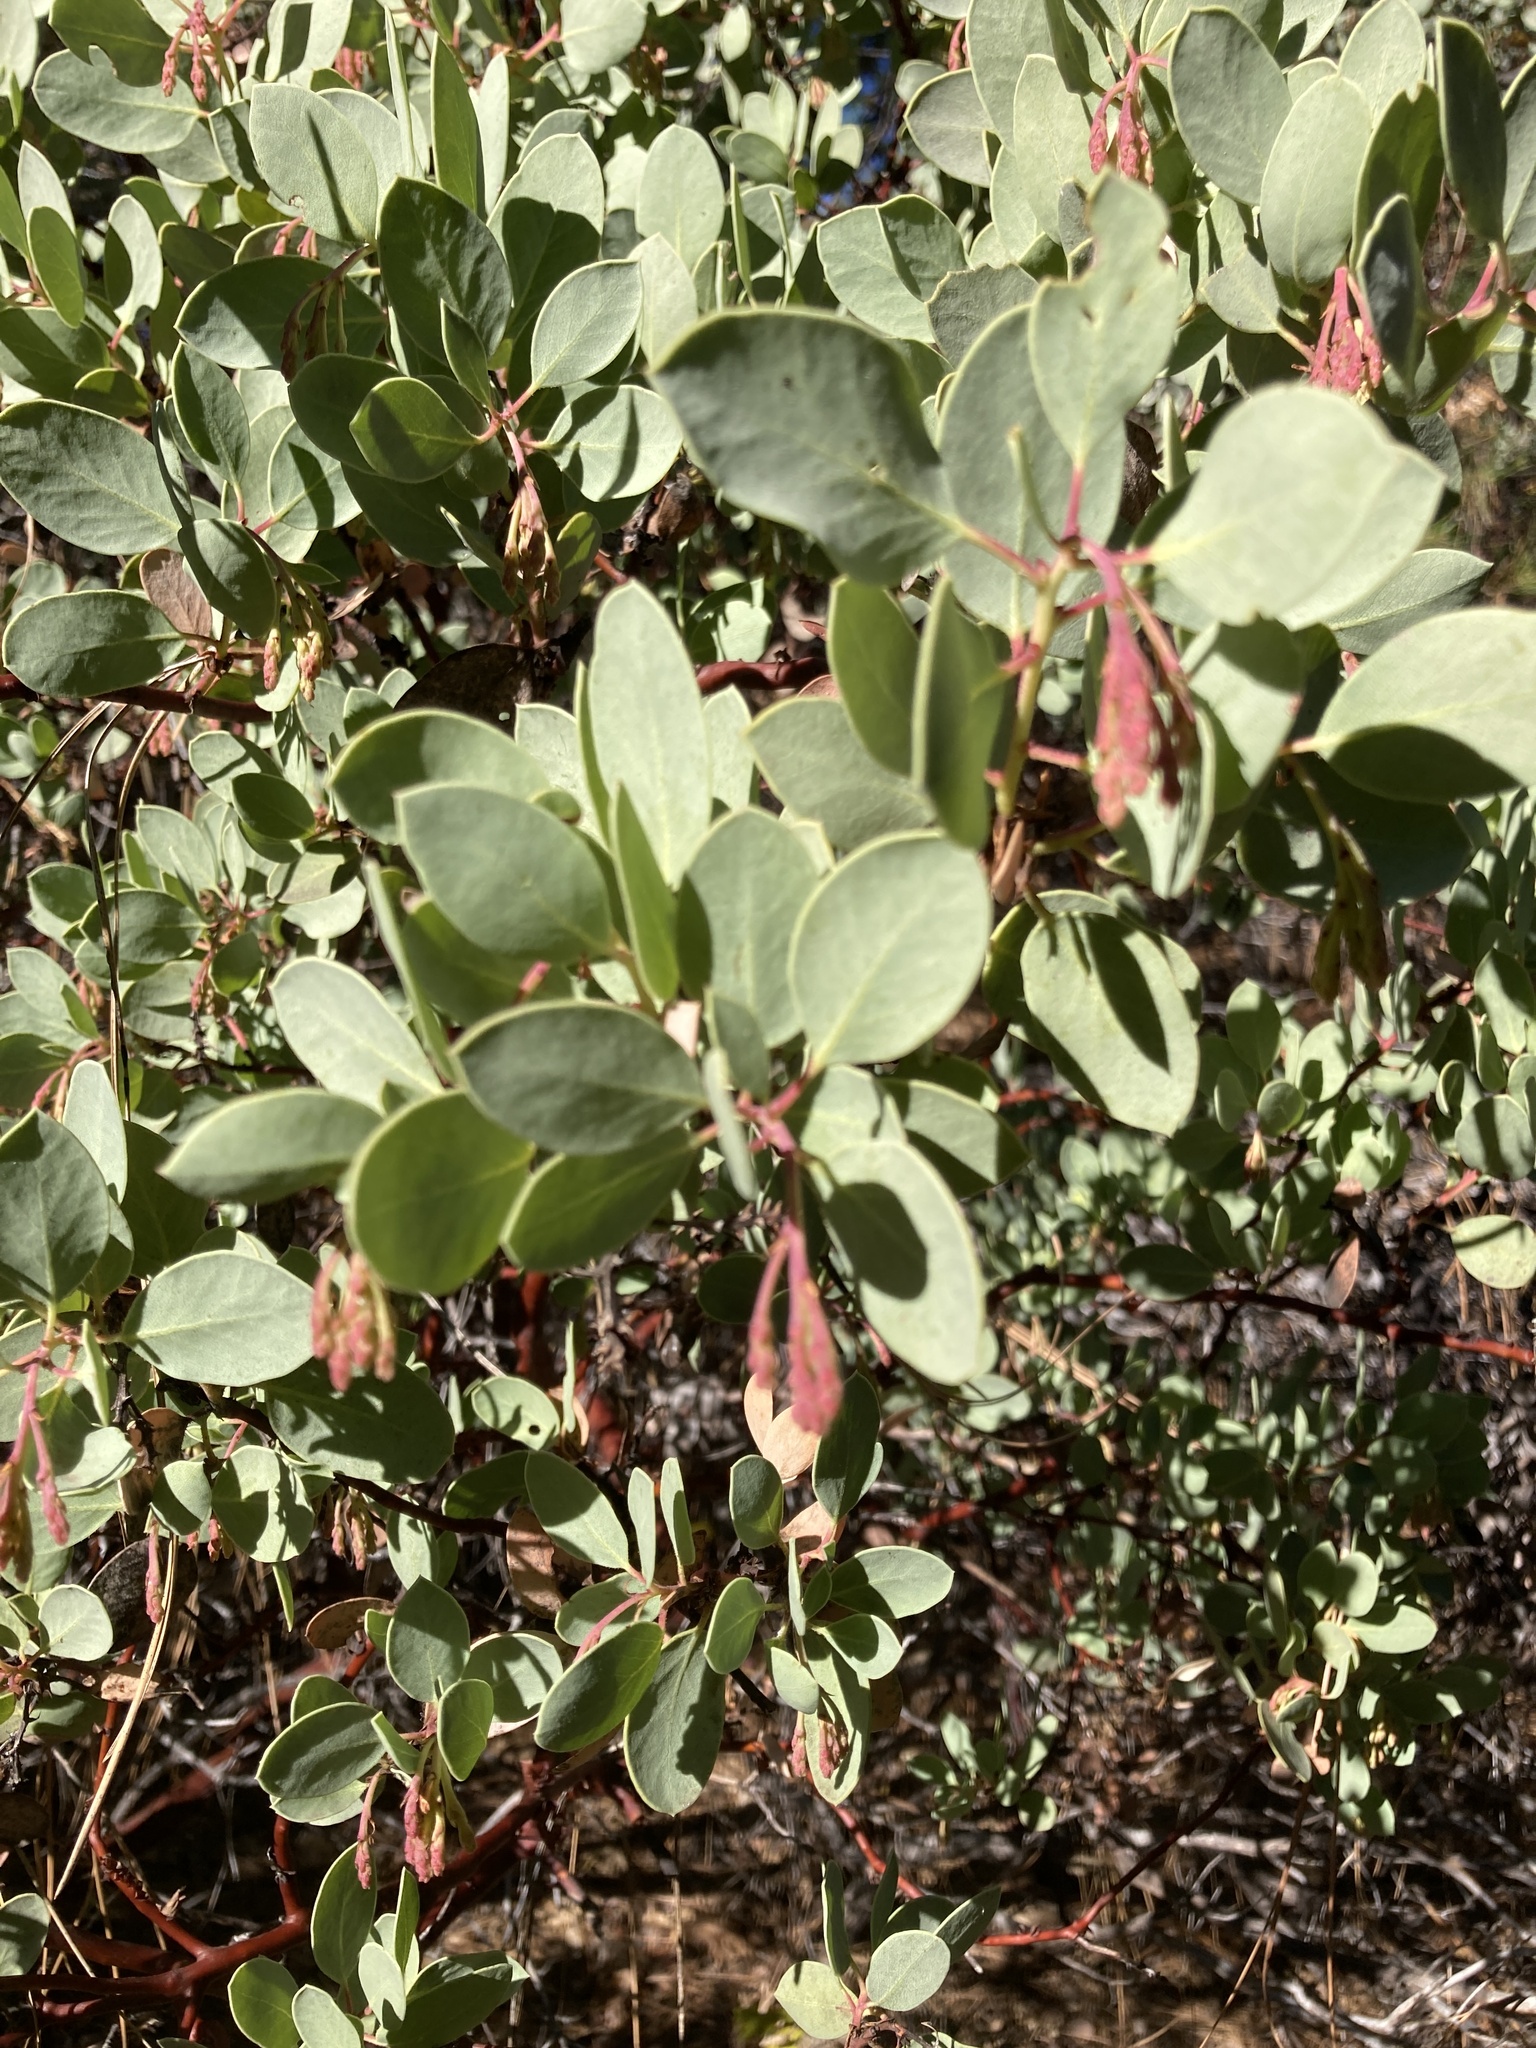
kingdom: Plantae
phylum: Tracheophyta
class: Magnoliopsida
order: Ericales
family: Ericaceae
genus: Arctostaphylos
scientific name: Arctostaphylos viscida
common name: White-leaf manzanita
